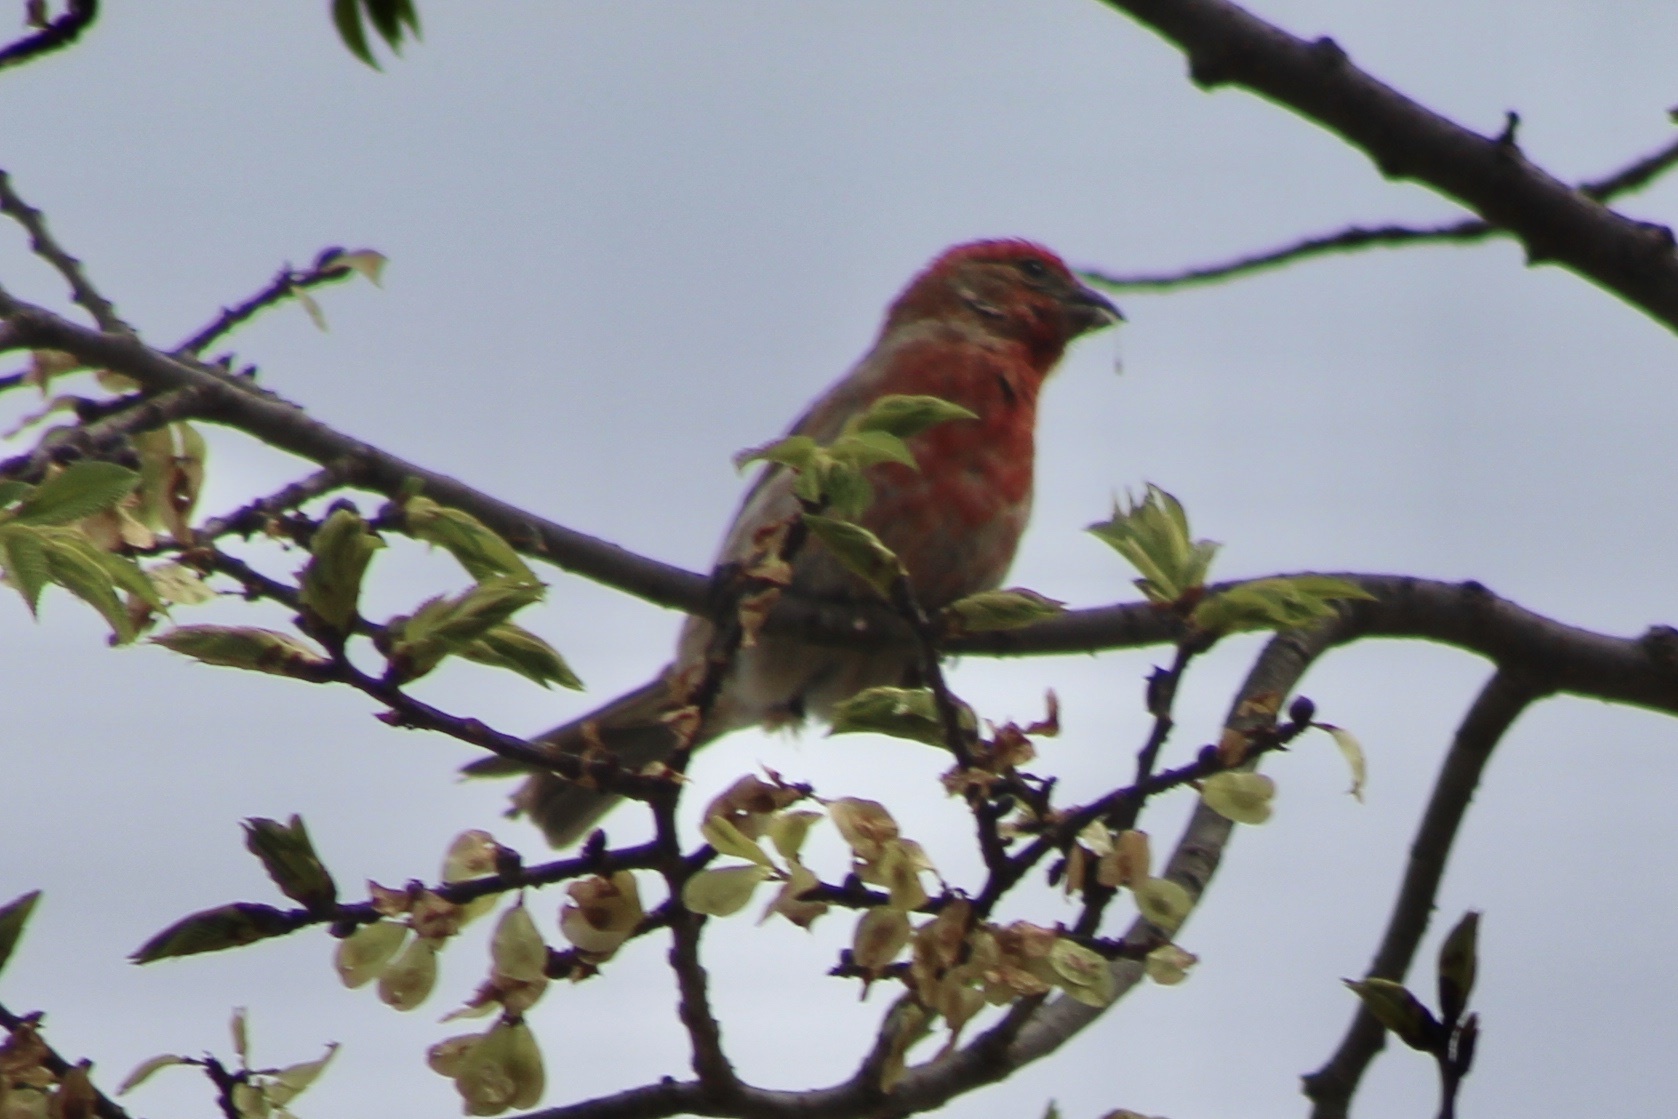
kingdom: Animalia
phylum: Chordata
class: Aves
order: Passeriformes
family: Fringillidae
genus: Haemorhous
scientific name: Haemorhous mexicanus
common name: House finch
